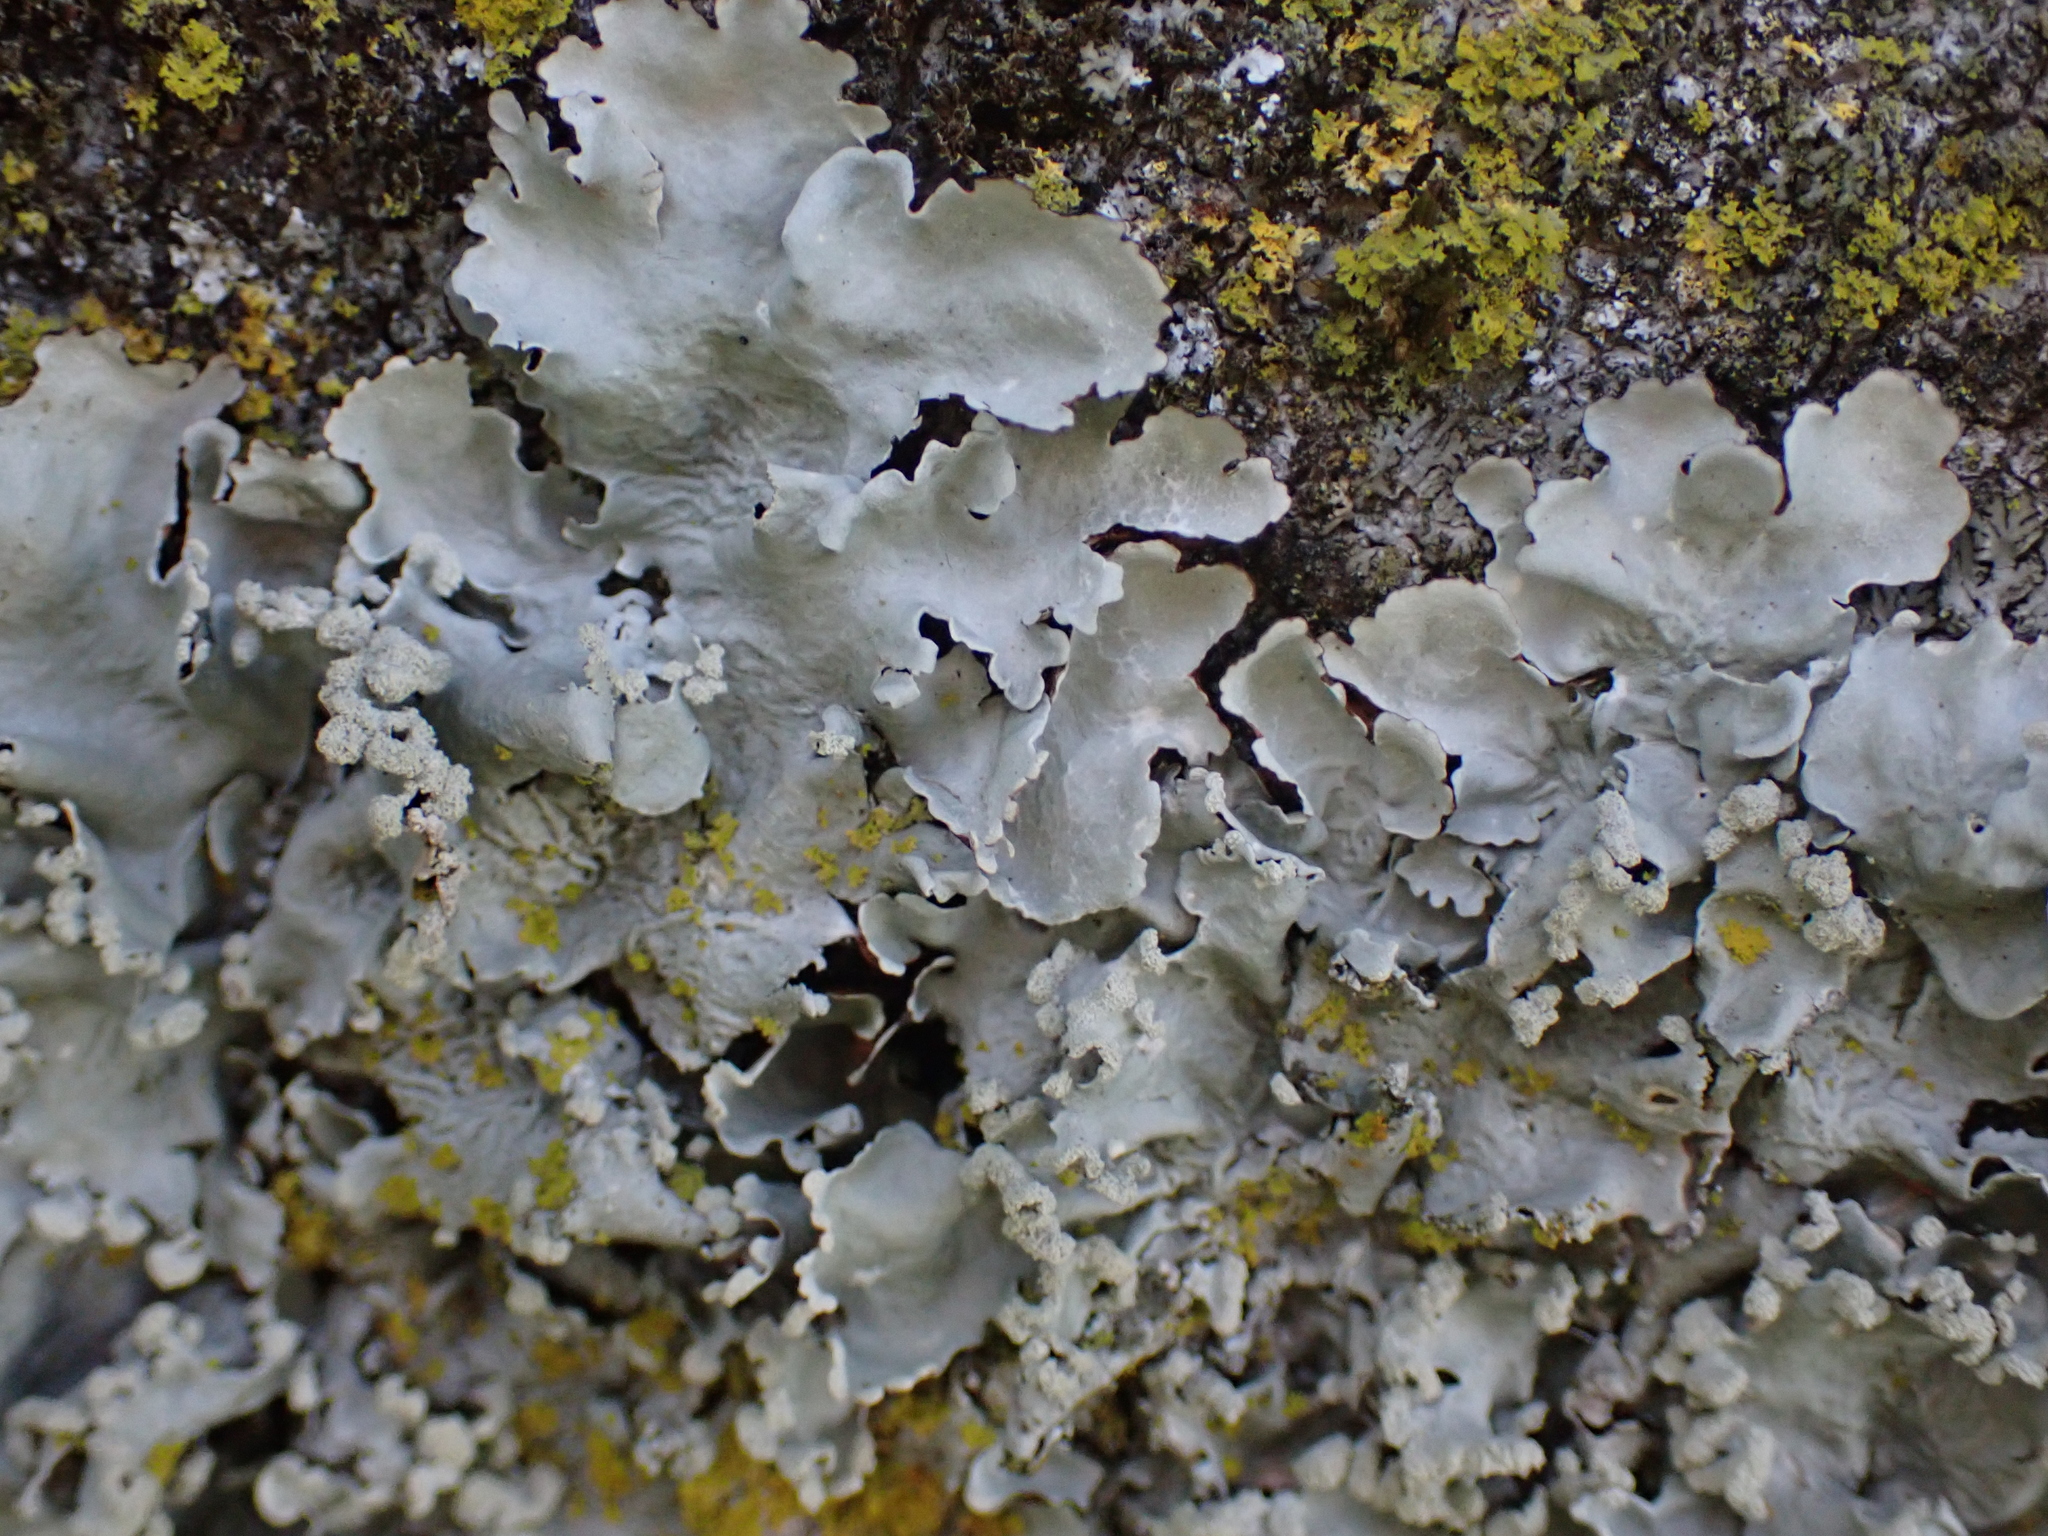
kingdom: Fungi
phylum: Ascomycota
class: Lecanoromycetes
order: Lecanorales
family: Parmeliaceae
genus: Parmotrema
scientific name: Parmotrema reticulatum
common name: Black sheet lichen
